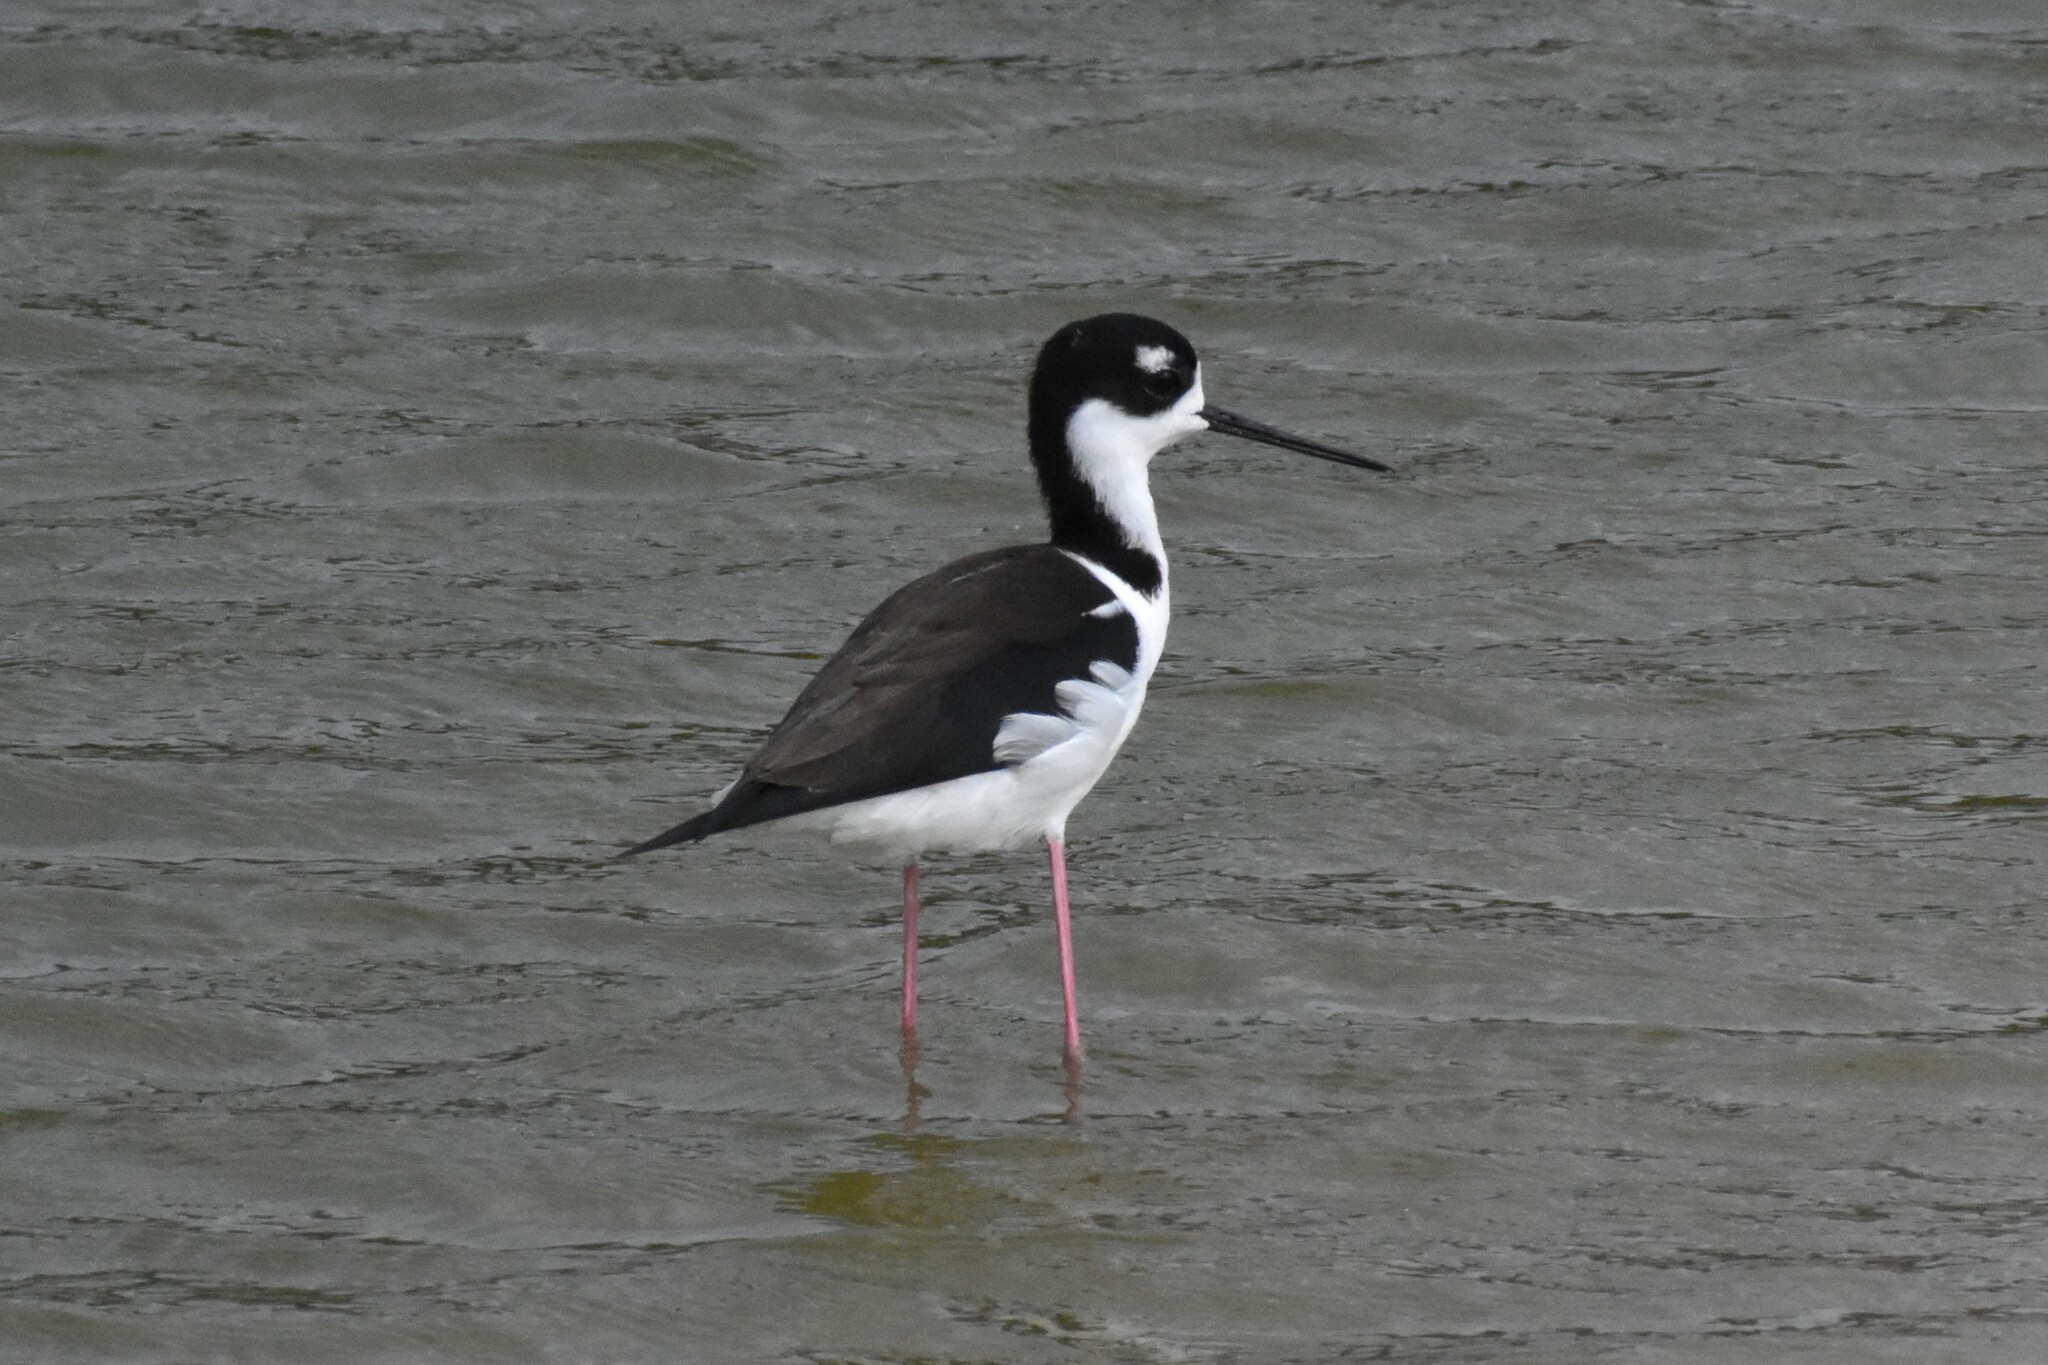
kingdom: Animalia
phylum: Chordata
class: Aves
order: Charadriiformes
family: Recurvirostridae
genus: Himantopus
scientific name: Himantopus mexicanus
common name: Black-necked stilt
